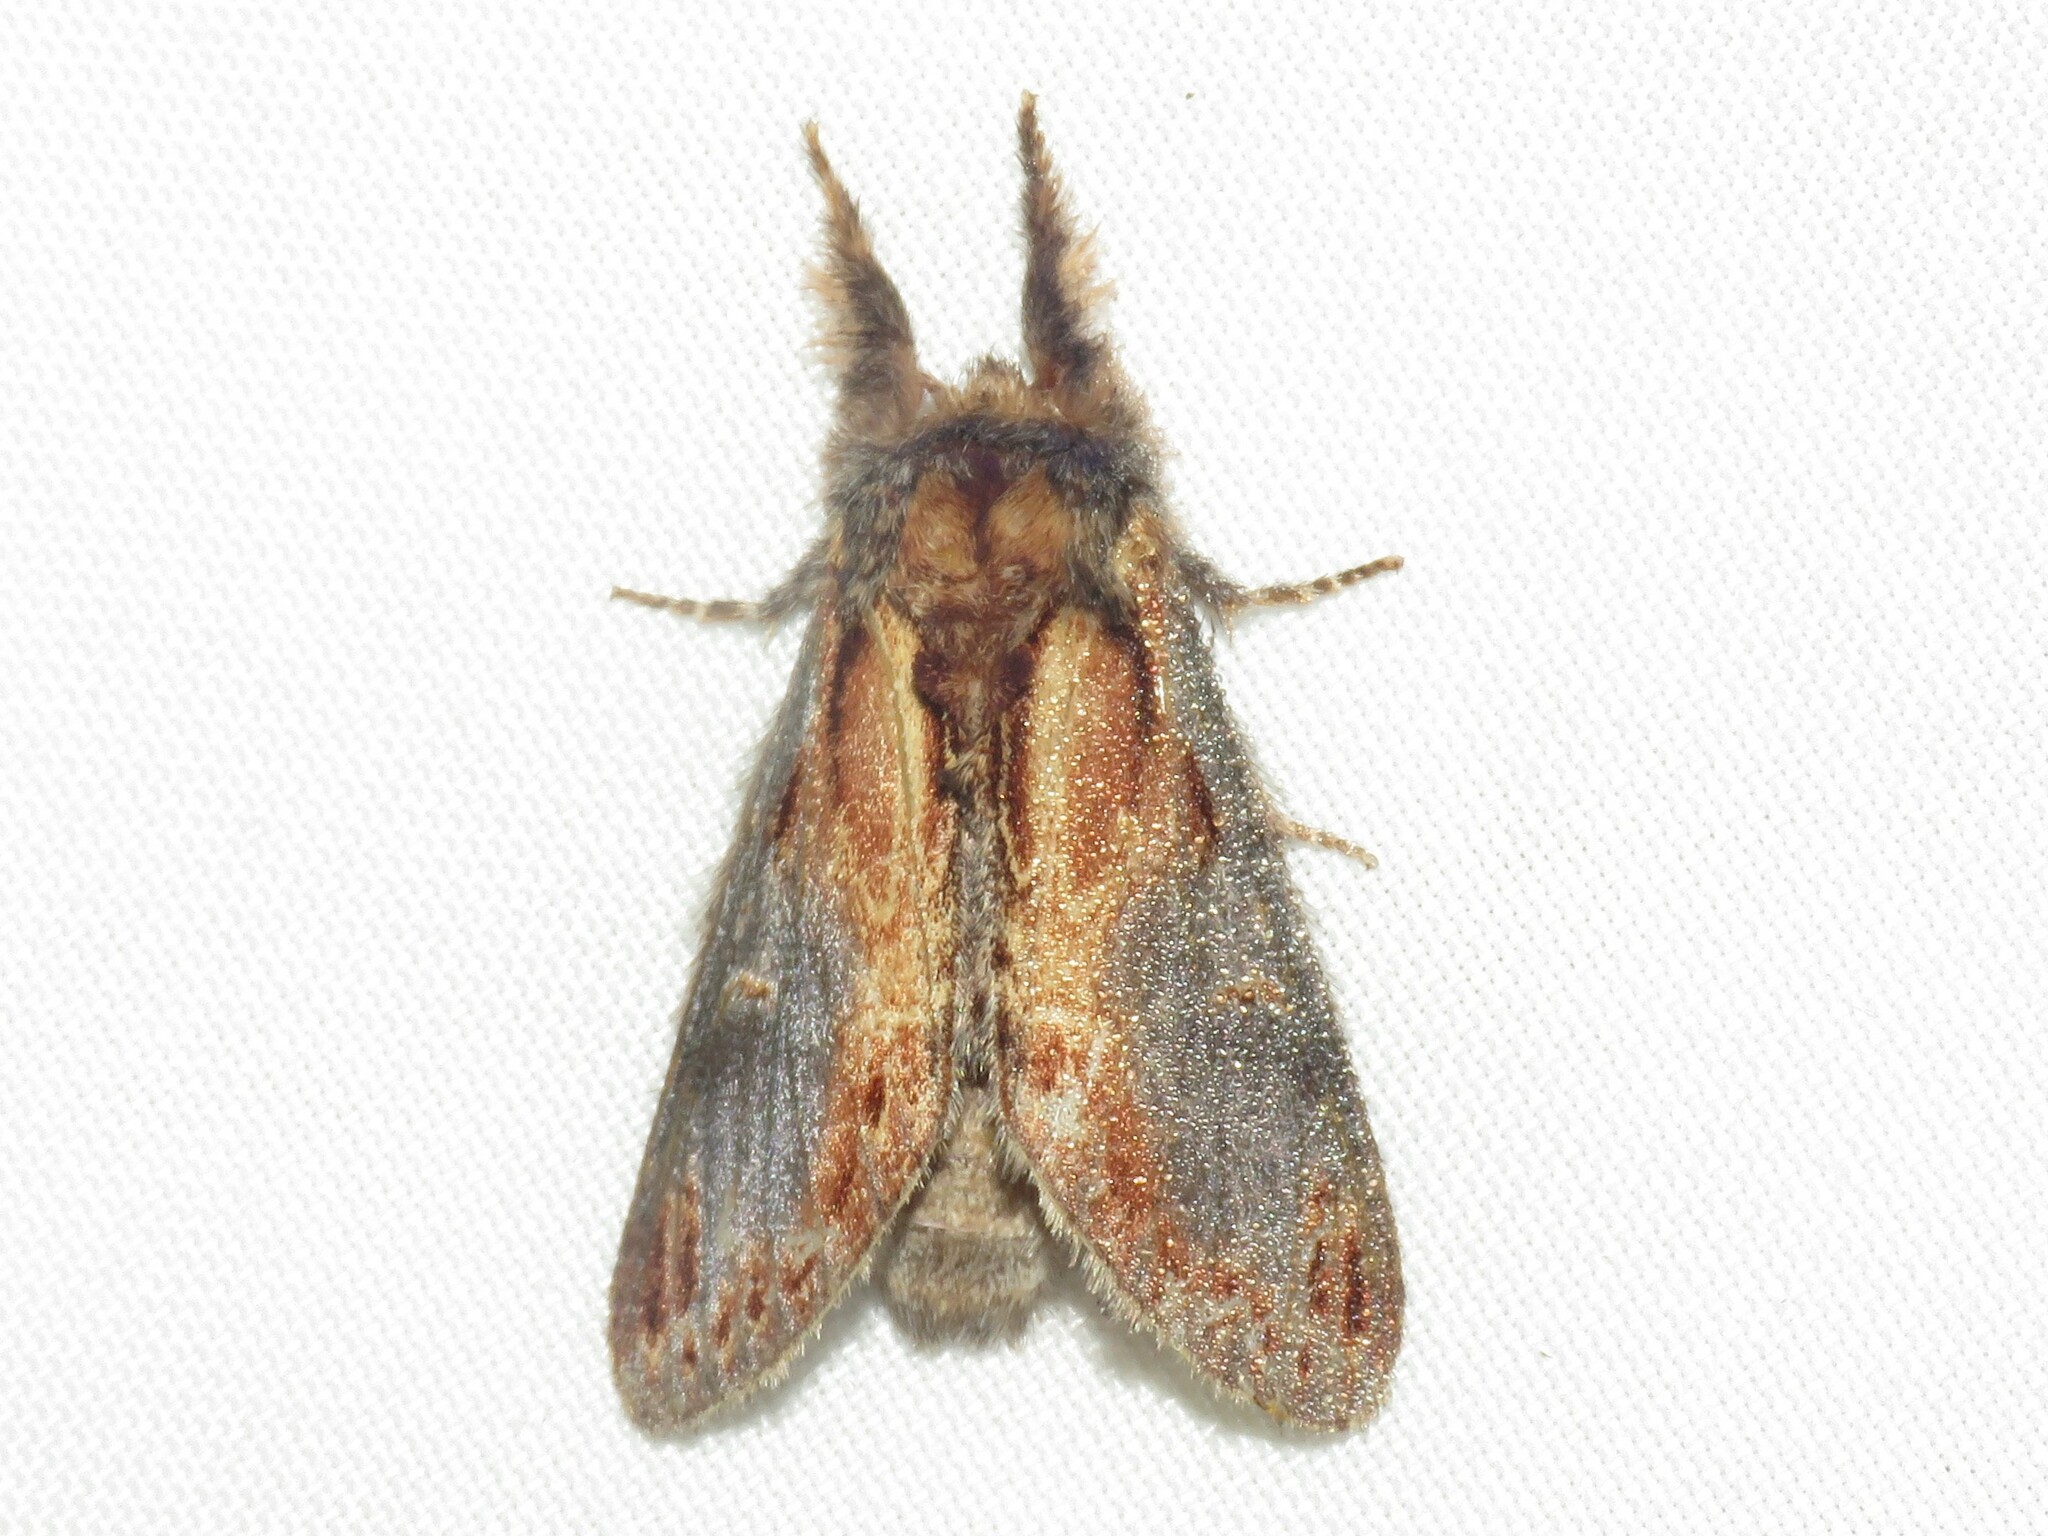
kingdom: Animalia
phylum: Arthropoda
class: Insecta
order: Lepidoptera
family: Notodontidae
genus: Notodonta
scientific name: Notodonta scitipennis
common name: Finned-willow prominent moth
